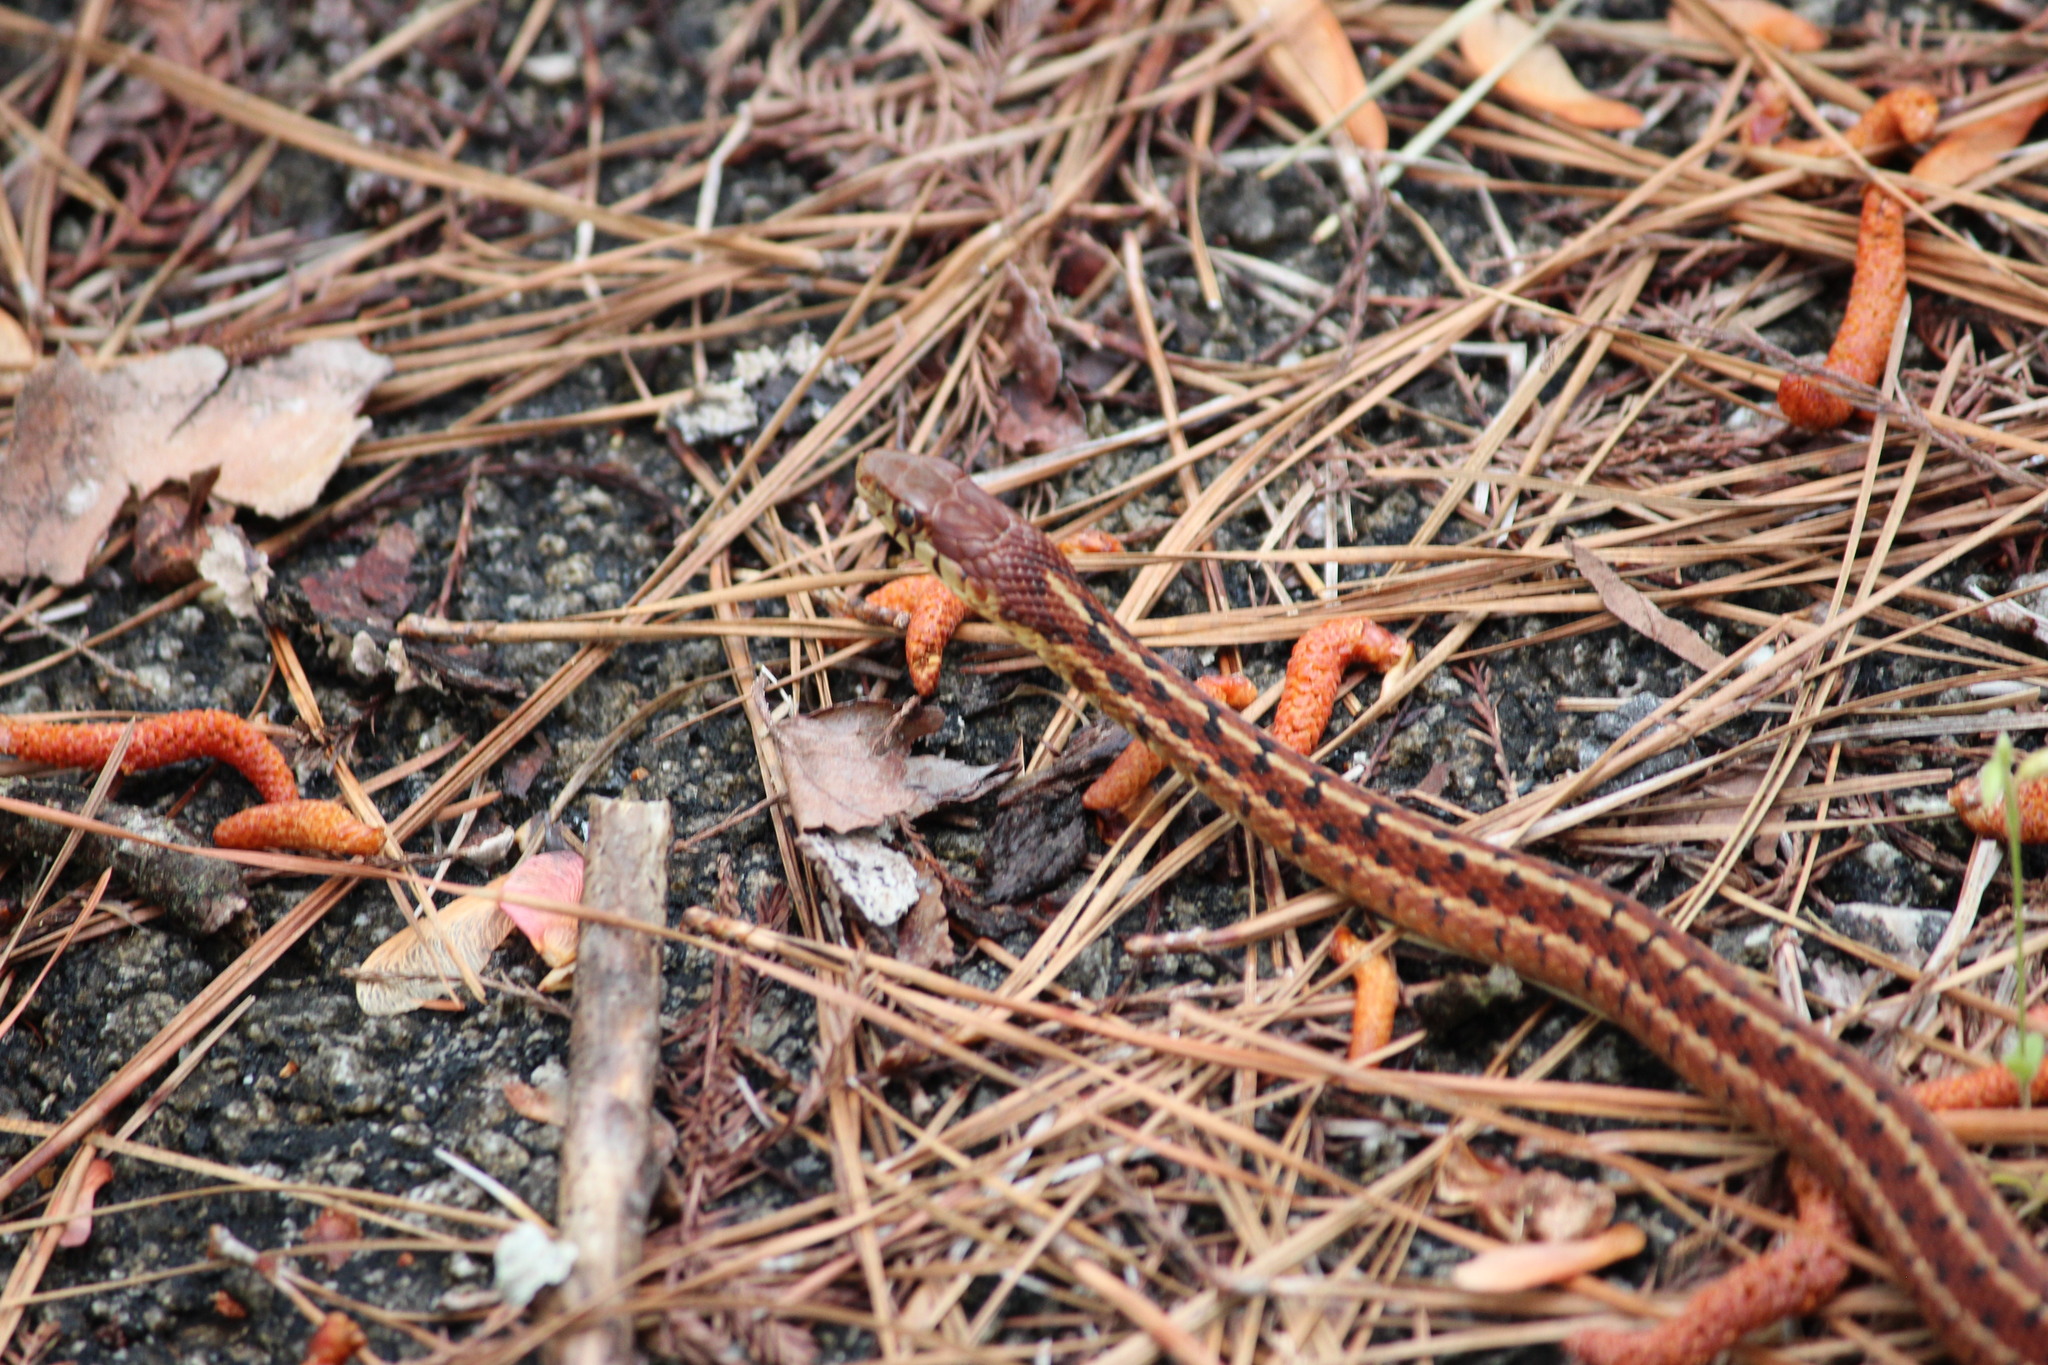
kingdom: Animalia
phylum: Chordata
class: Squamata
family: Colubridae
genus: Thamnophis
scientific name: Thamnophis sirtalis
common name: Common garter snake
